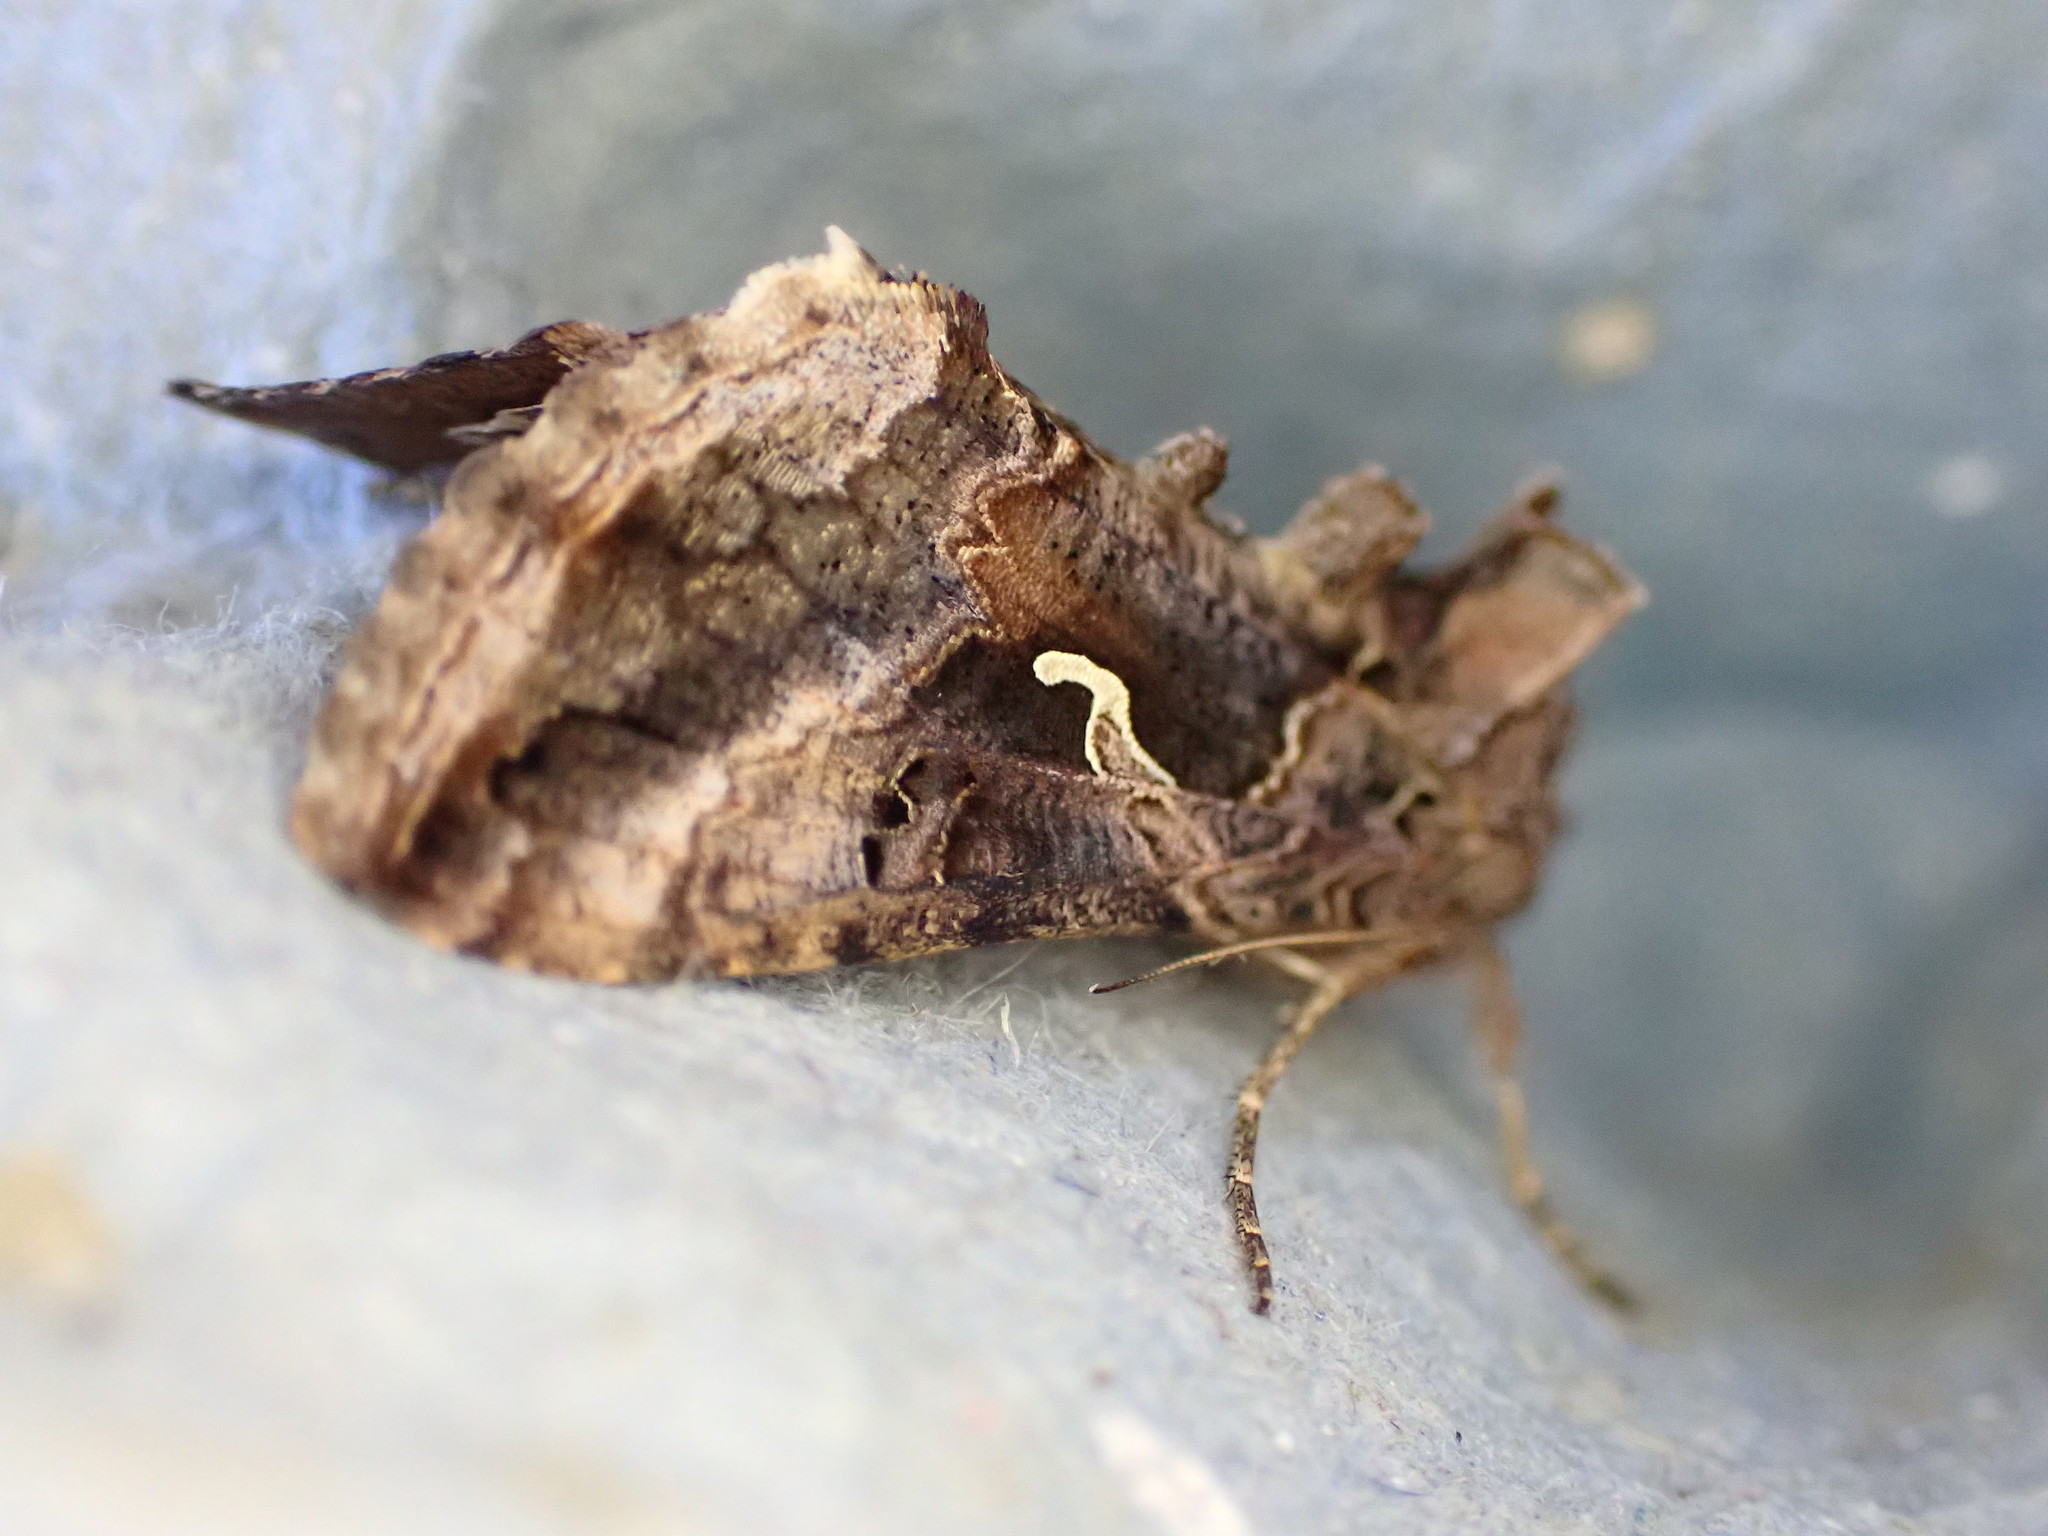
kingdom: Animalia
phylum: Arthropoda
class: Insecta
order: Lepidoptera
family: Noctuidae
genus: Autographa
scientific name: Autographa gamma
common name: Silver y
